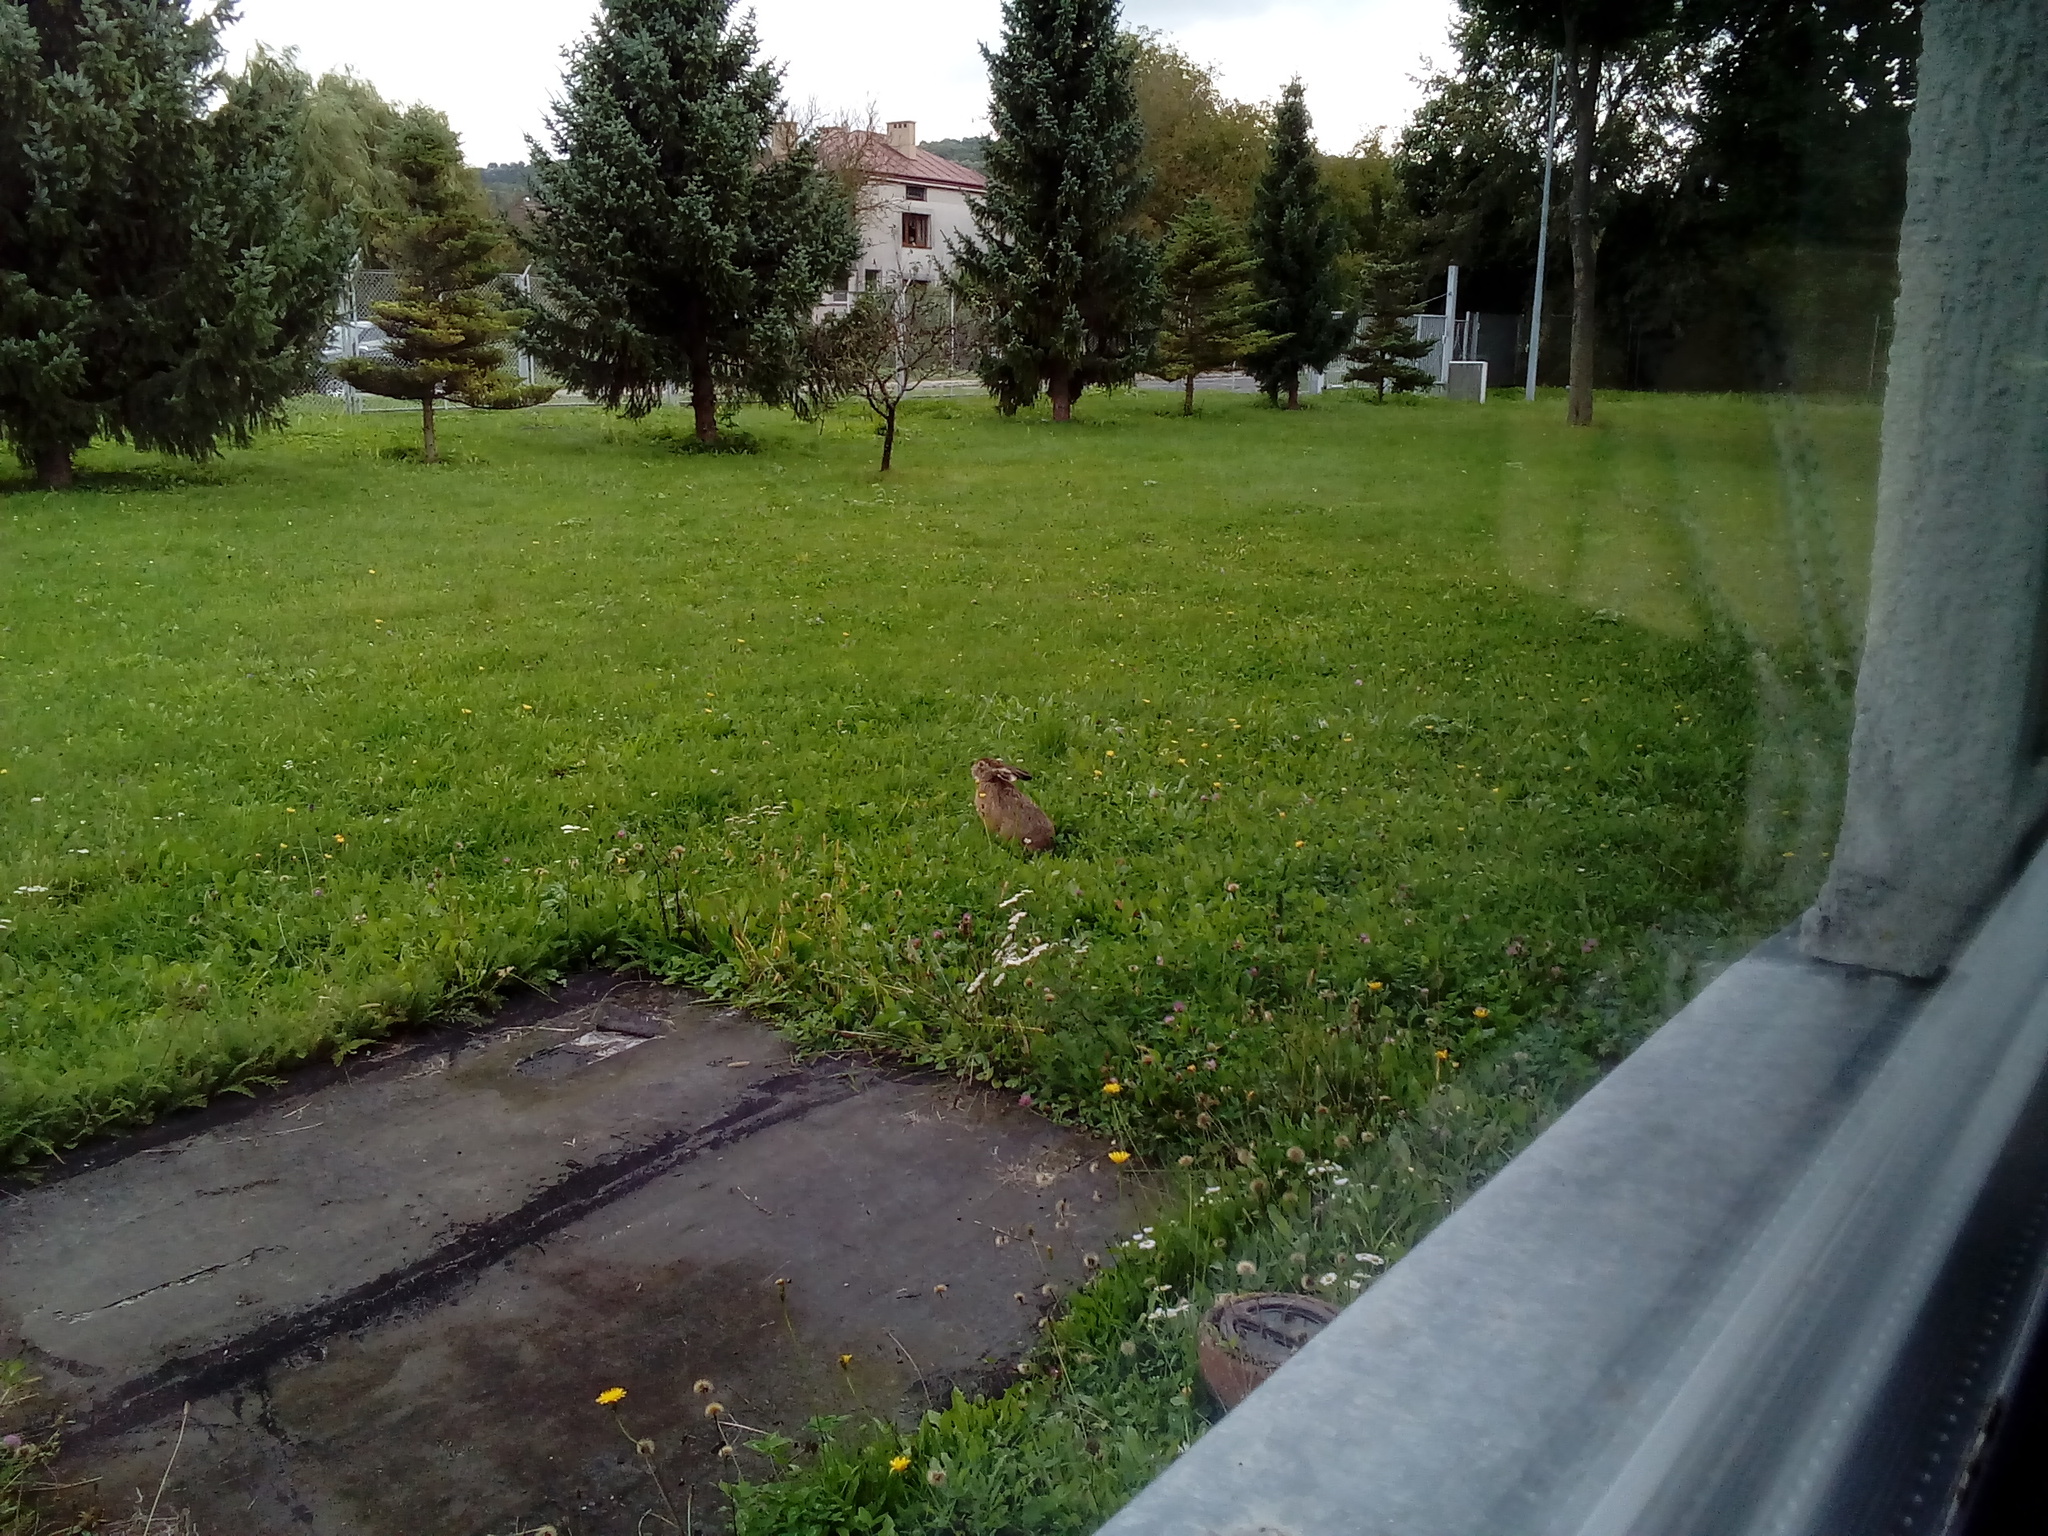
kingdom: Animalia
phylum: Chordata
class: Mammalia
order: Lagomorpha
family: Leporidae
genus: Lepus
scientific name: Lepus europaeus
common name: European hare
